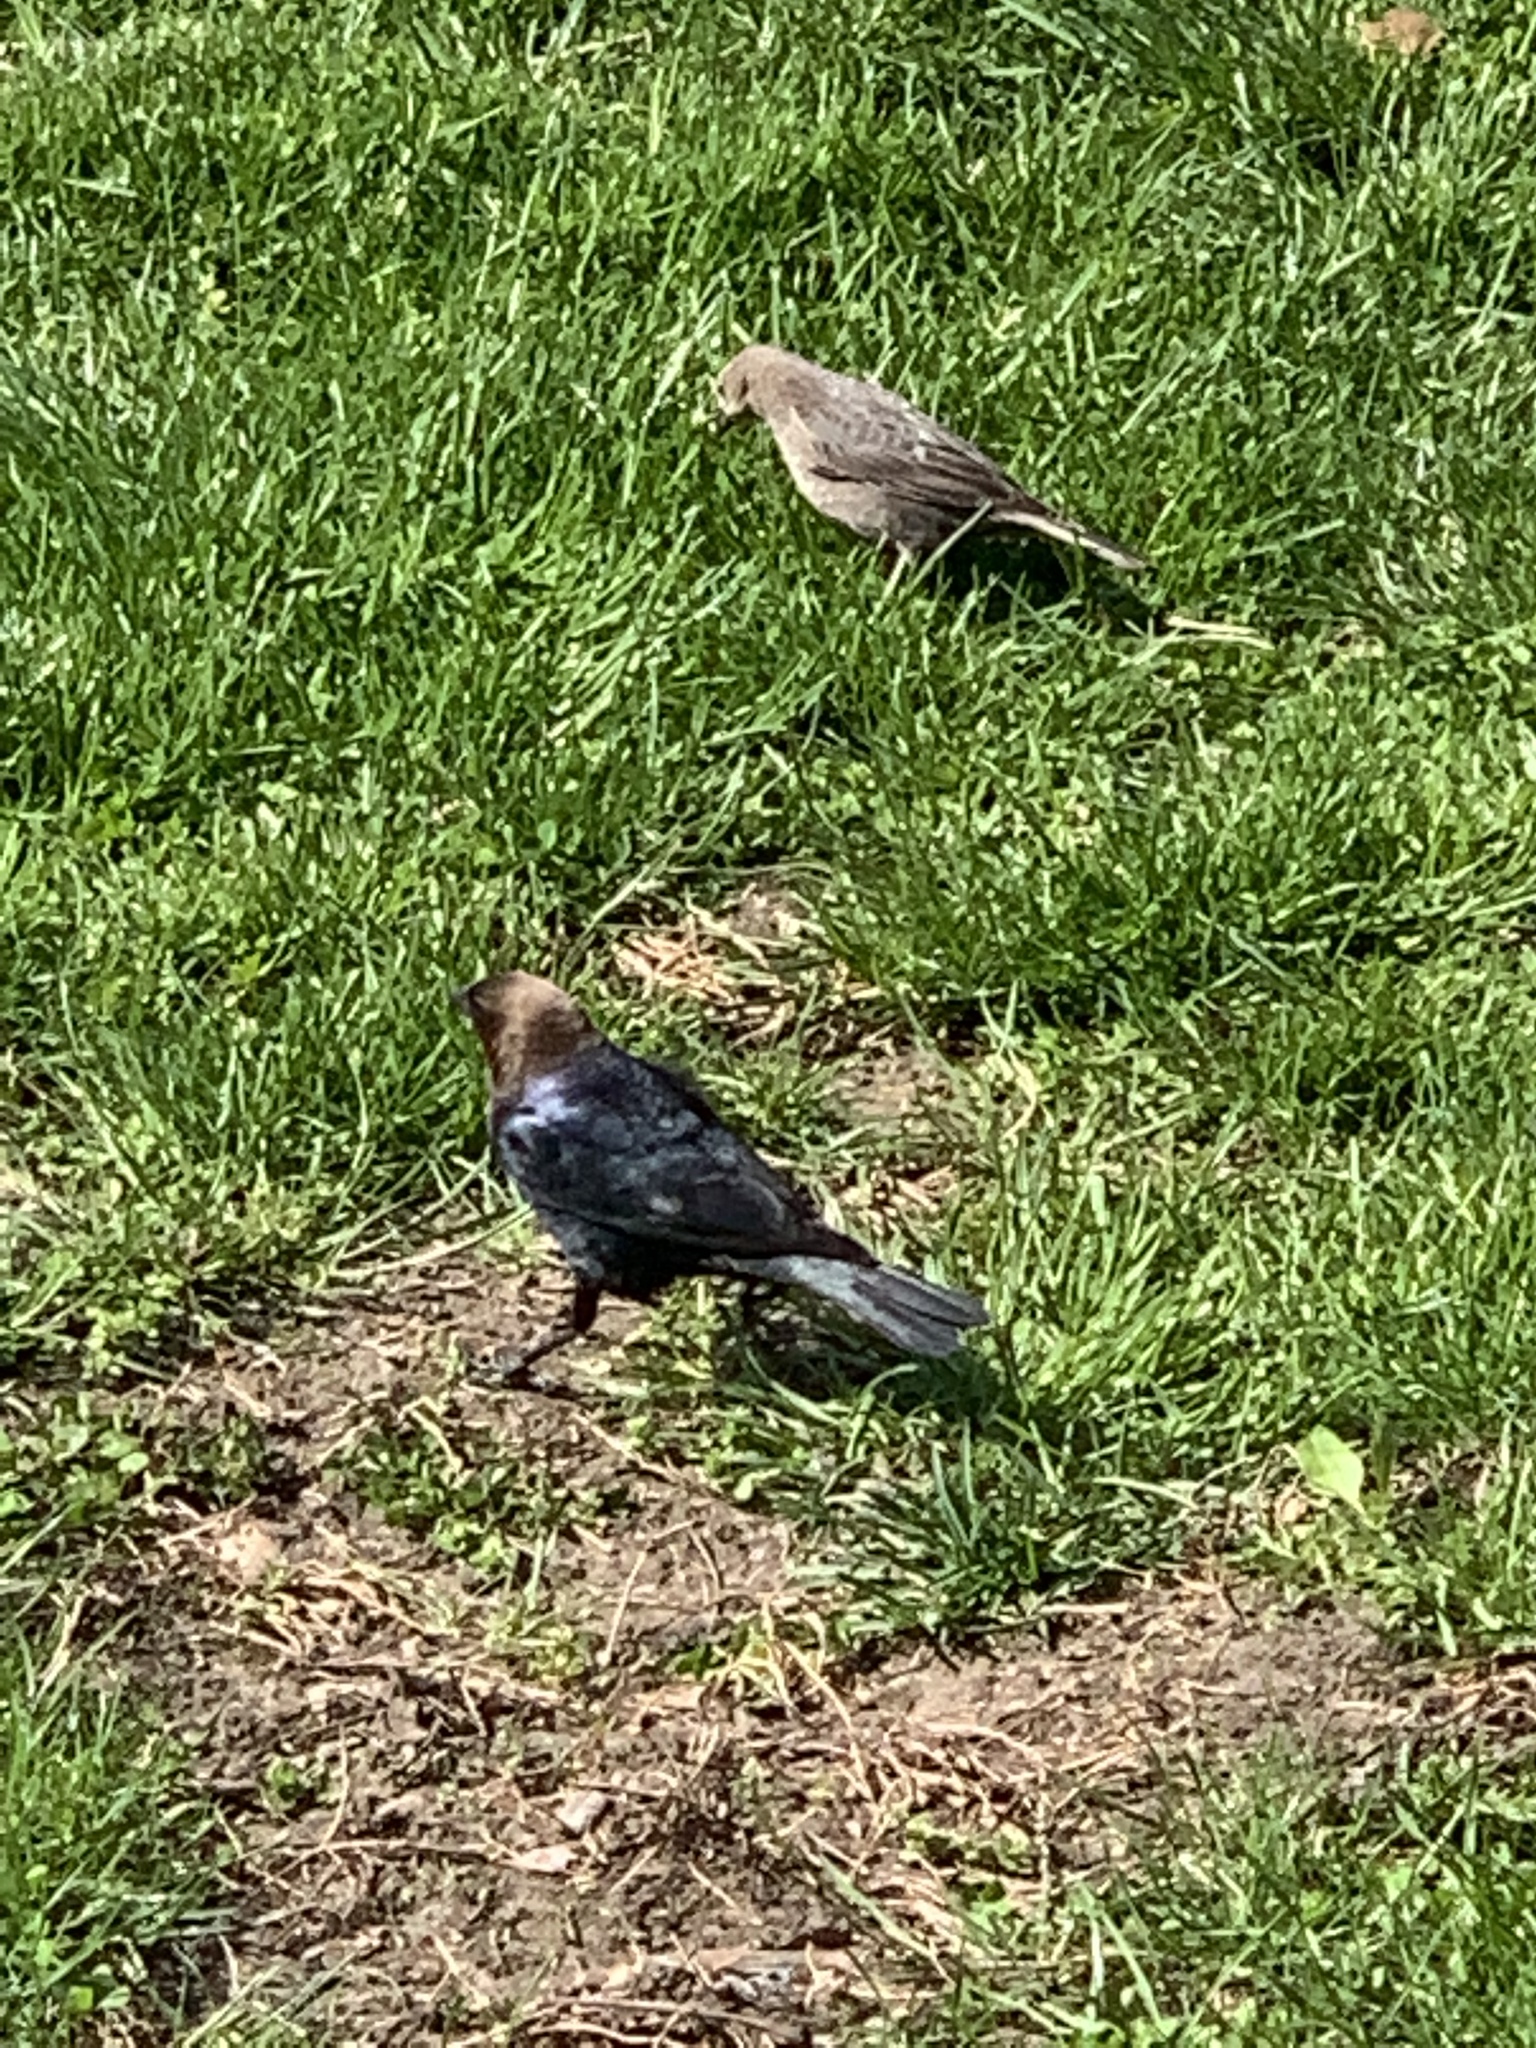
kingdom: Animalia
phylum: Chordata
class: Aves
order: Passeriformes
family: Icteridae
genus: Molothrus
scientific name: Molothrus ater
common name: Brown-headed cowbird
